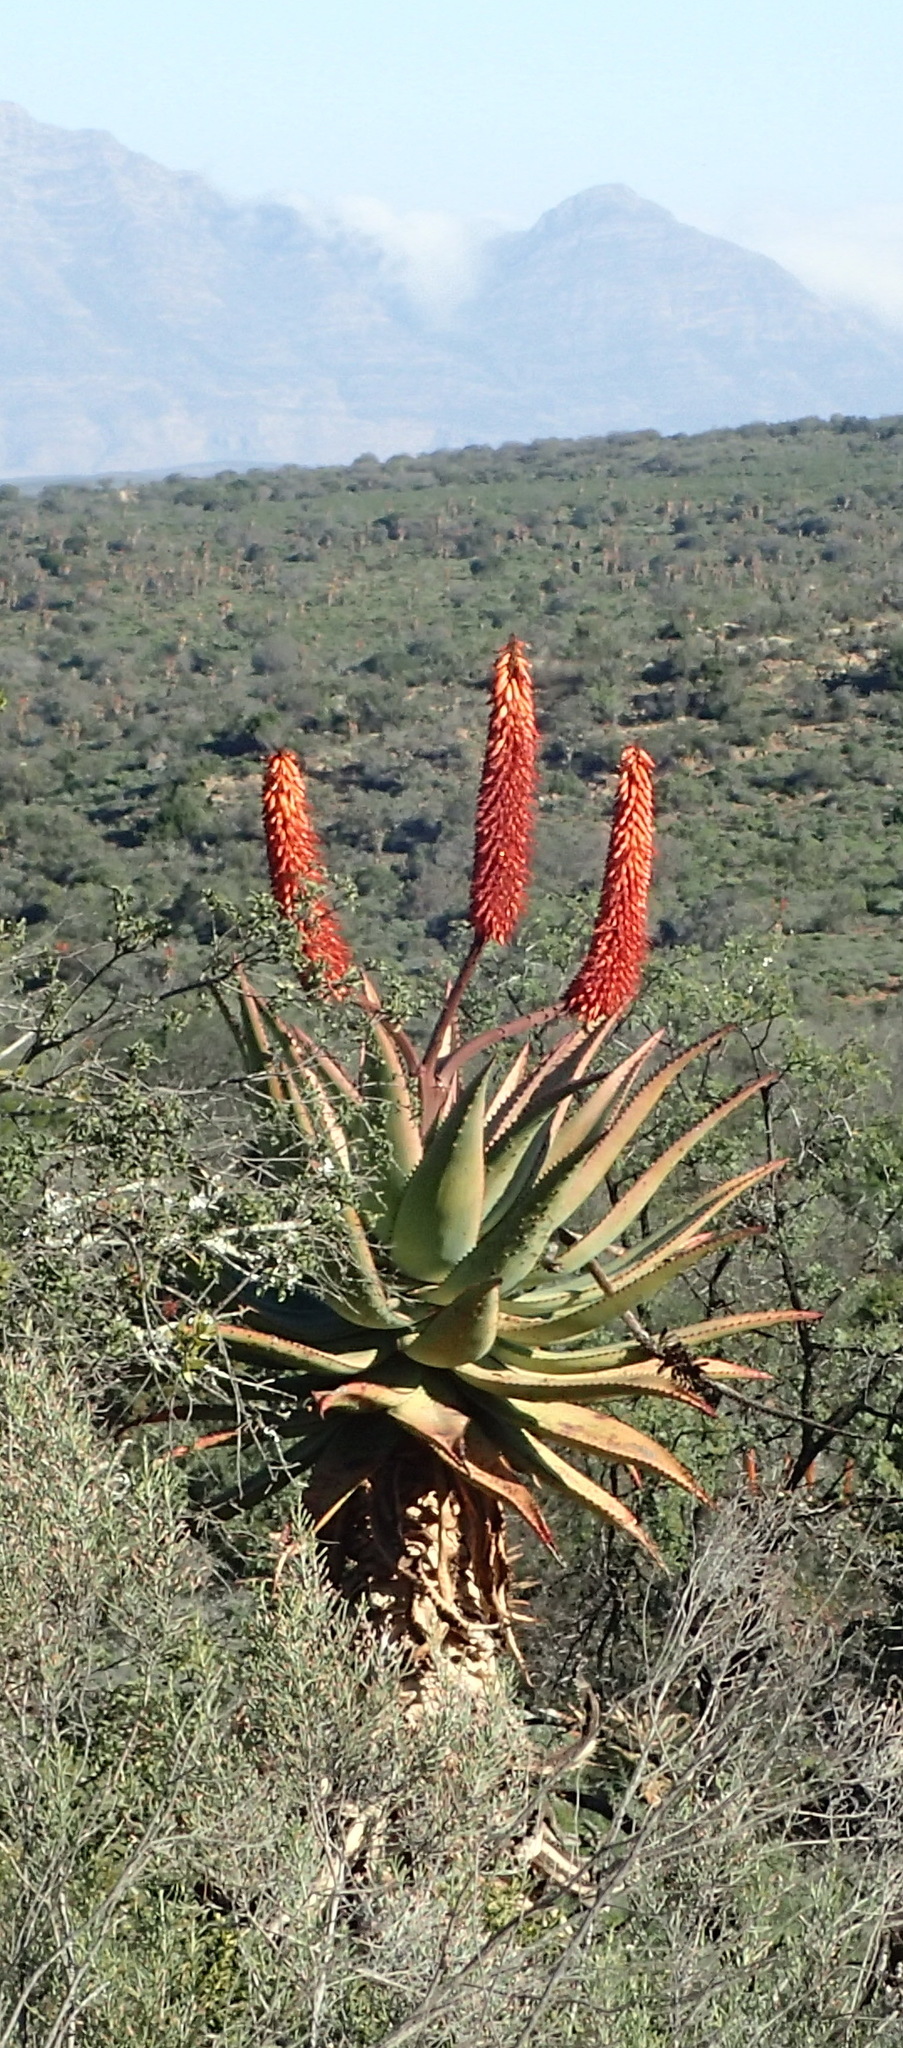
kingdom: Plantae
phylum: Tracheophyta
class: Liliopsida
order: Asparagales
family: Asphodelaceae
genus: Aloe
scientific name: Aloe ferox
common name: Bitter aloe
